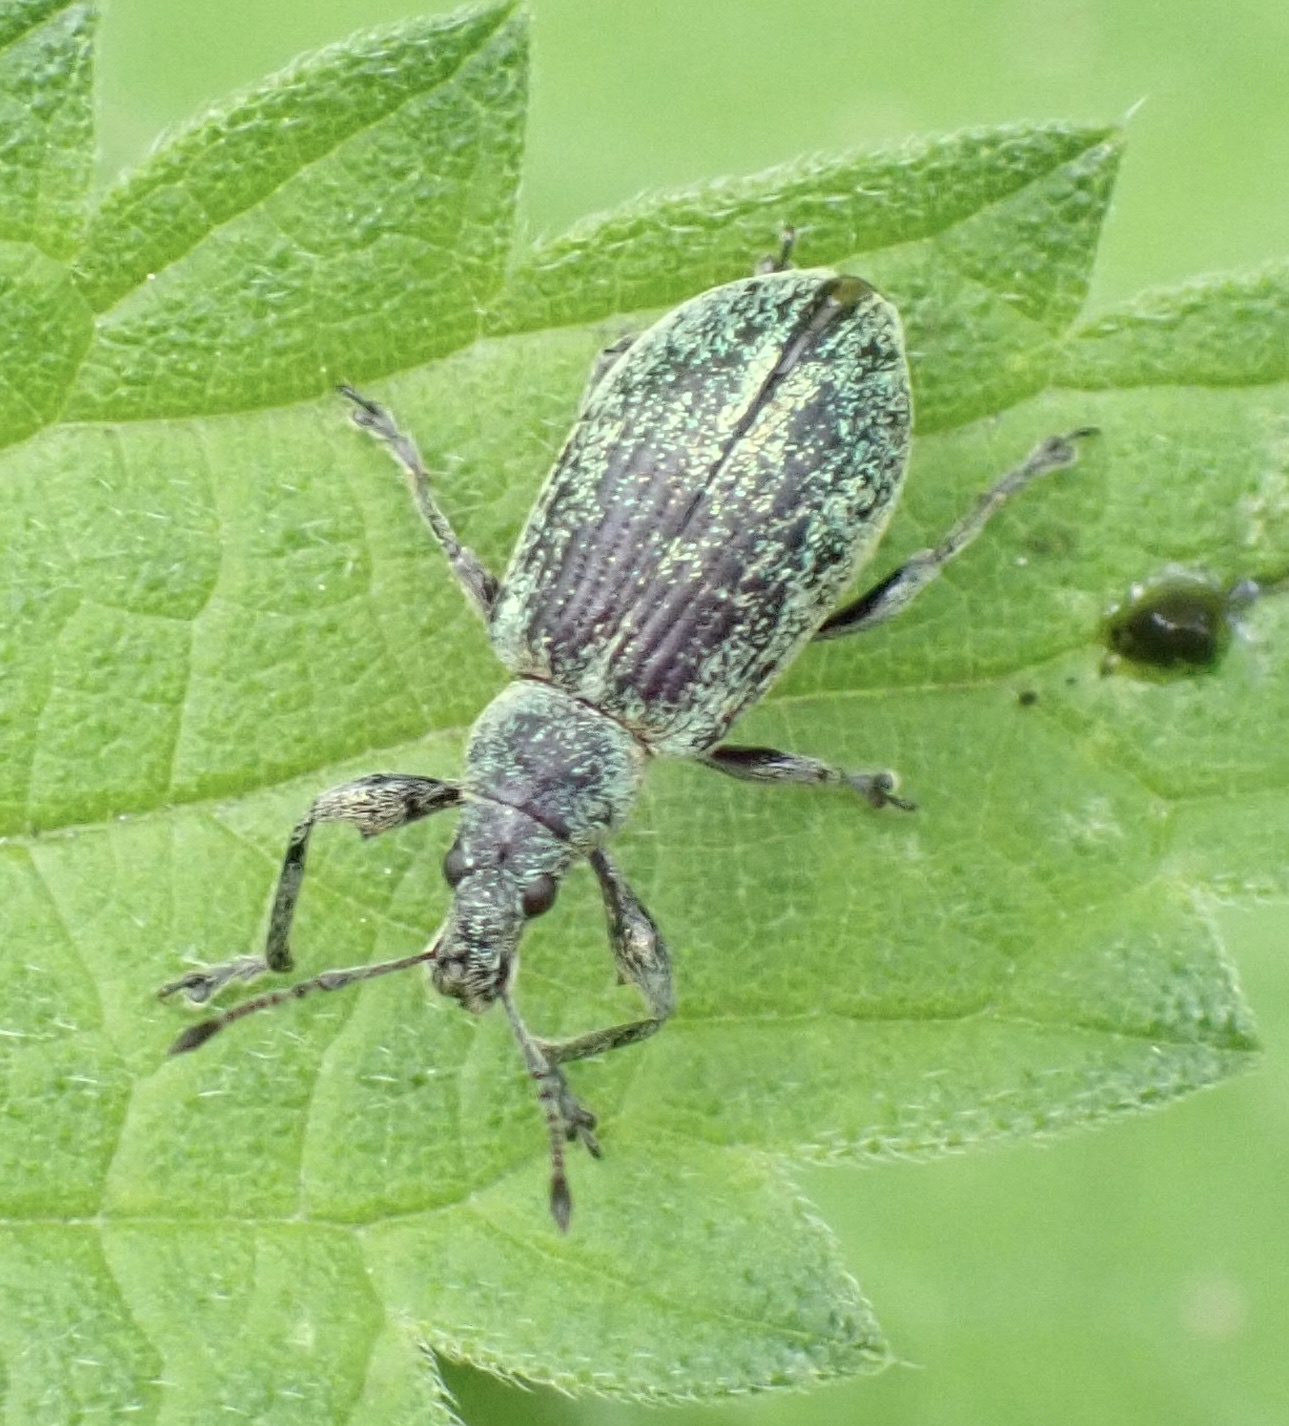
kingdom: Animalia
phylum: Arthropoda
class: Insecta
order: Coleoptera
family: Curculionidae
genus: Phyllobius
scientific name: Phyllobius pomaceus
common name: Green nettle weevil
